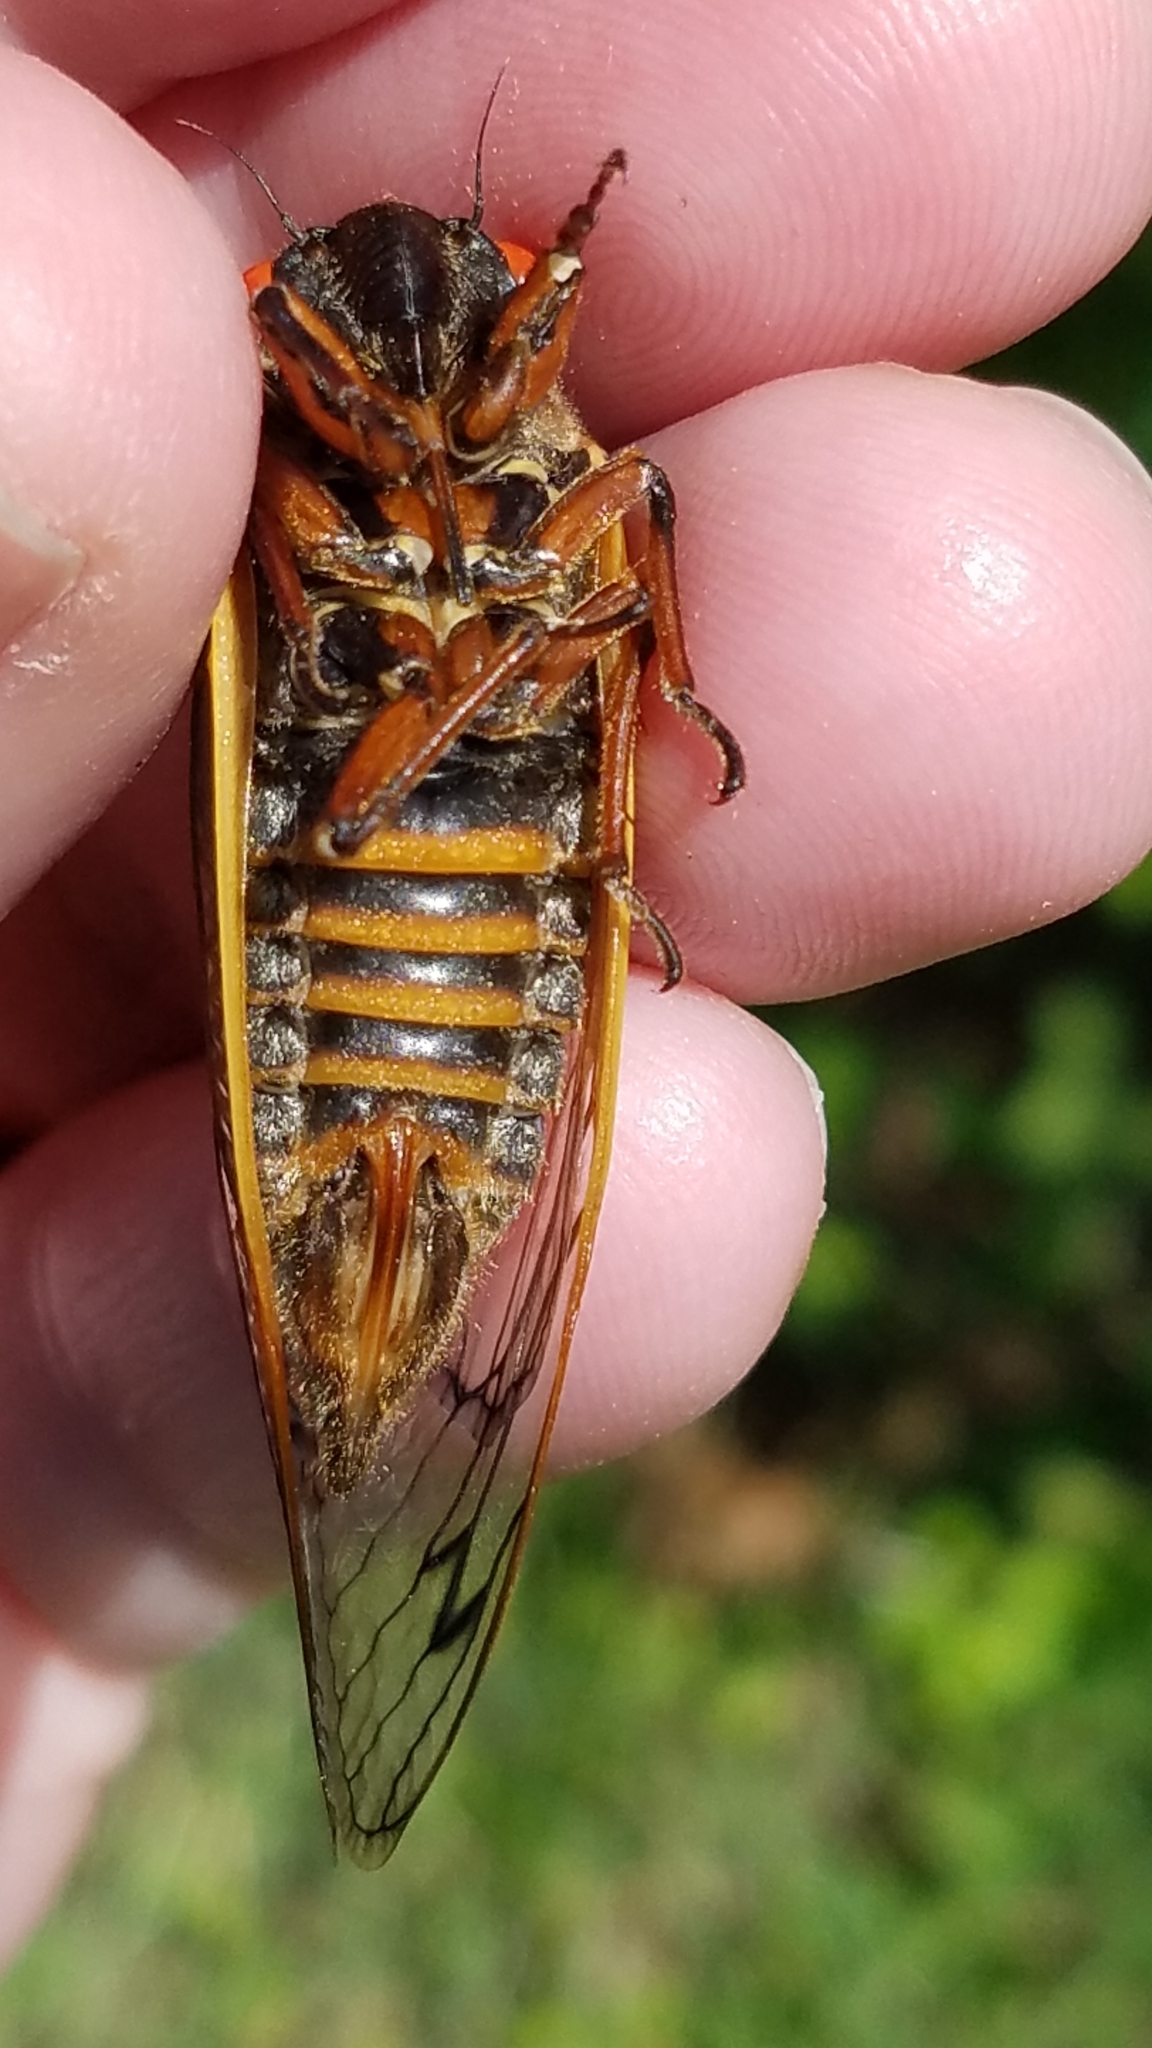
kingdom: Animalia
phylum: Arthropoda
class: Insecta
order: Hemiptera
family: Cicadidae
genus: Magicicada
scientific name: Magicicada septendecim
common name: Periodical cicada
